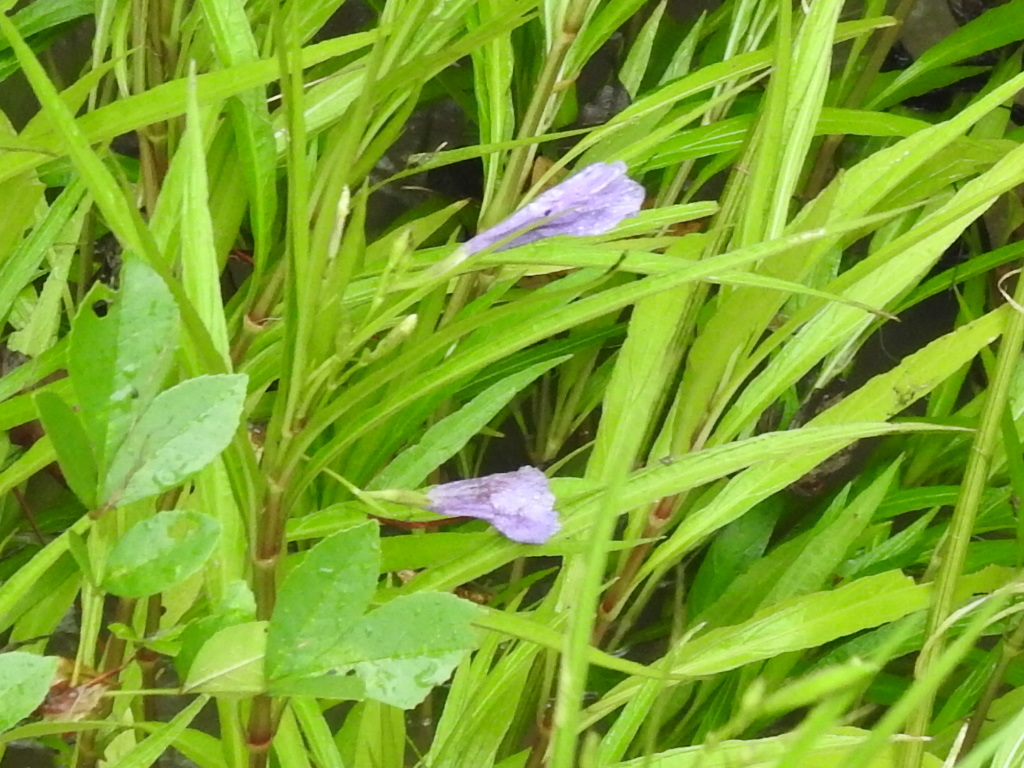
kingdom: Plantae
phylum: Tracheophyta
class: Magnoliopsida
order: Lamiales
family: Acanthaceae
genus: Ruellia
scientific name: Ruellia simplex
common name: Softseed wild petunia
